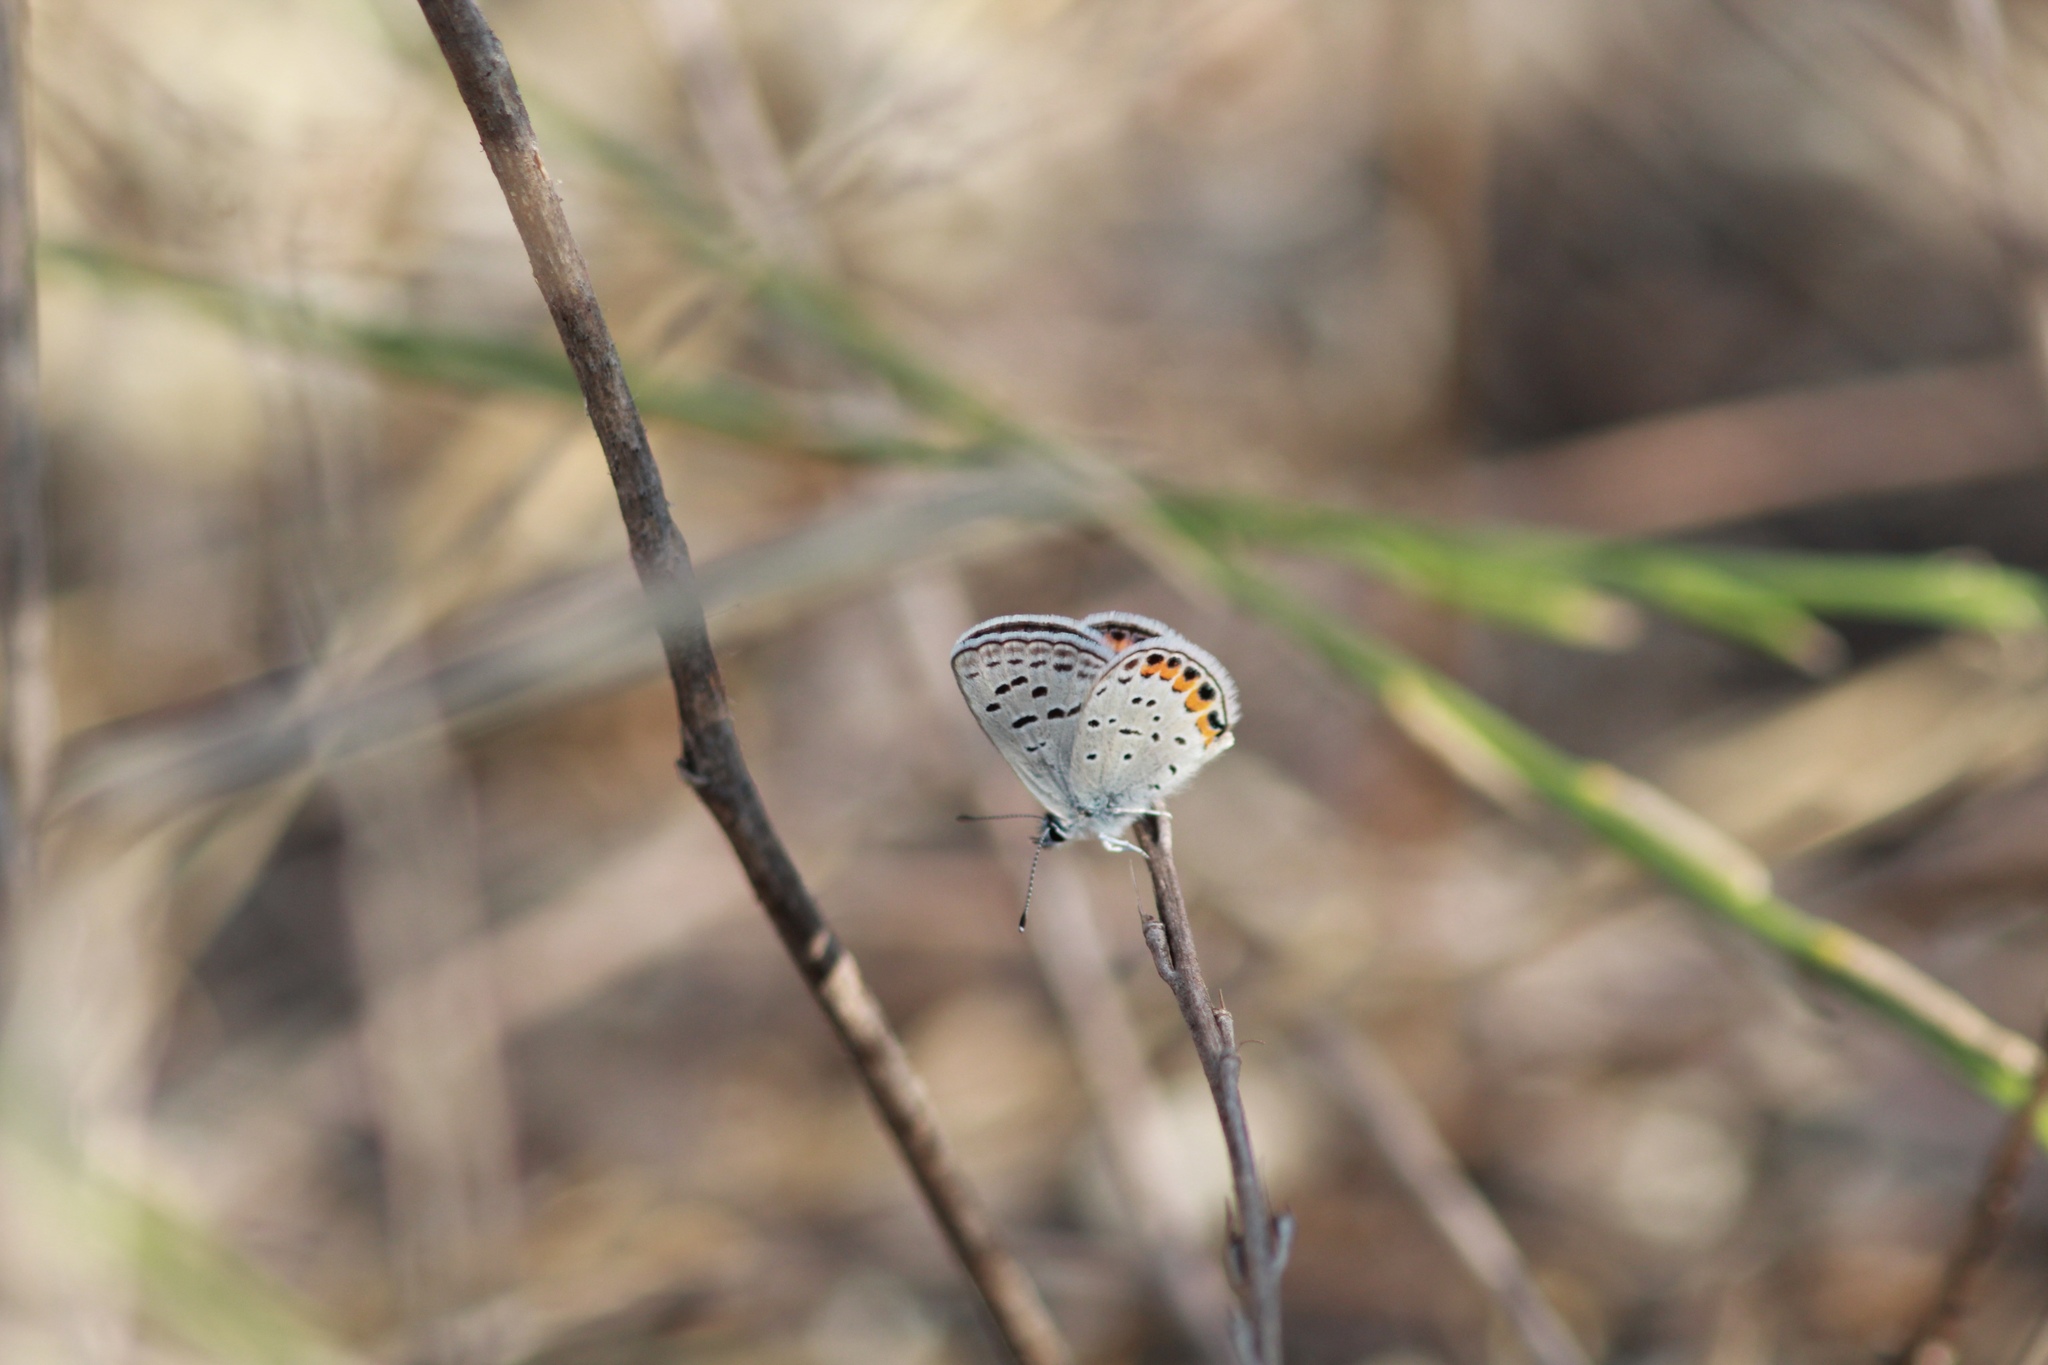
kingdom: Animalia
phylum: Arthropoda
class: Insecta
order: Lepidoptera
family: Lycaenidae
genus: Icaricia
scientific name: Icaricia acmon
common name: Acmon blue
